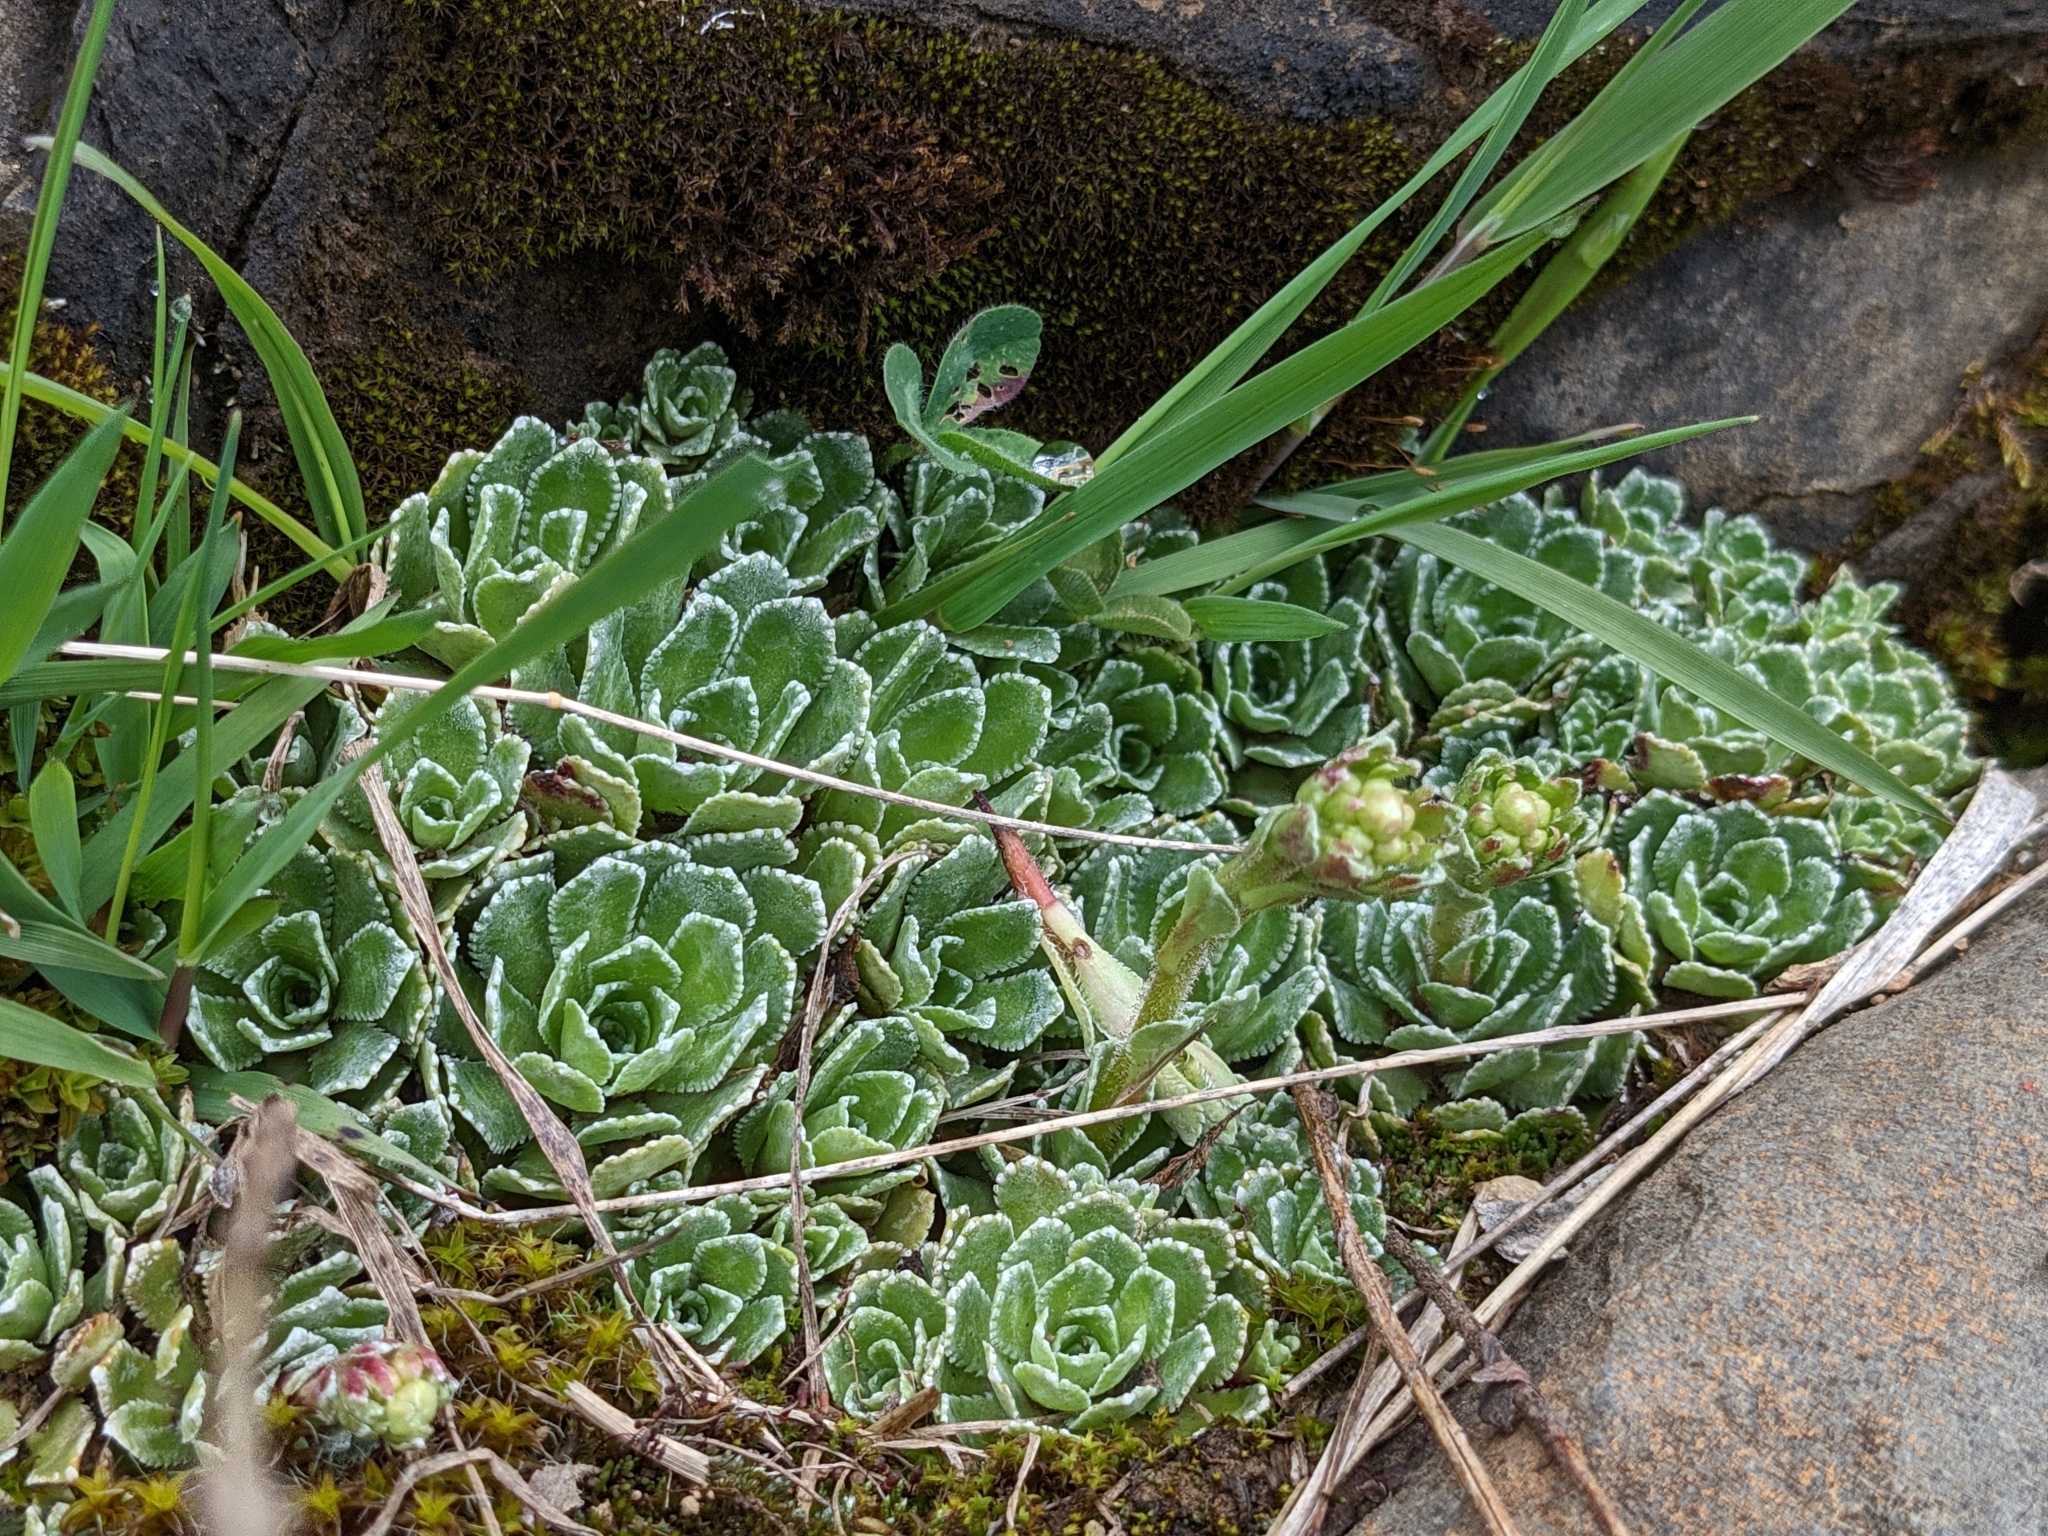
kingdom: Plantae
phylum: Tracheophyta
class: Magnoliopsida
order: Saxifragales
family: Saxifragaceae
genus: Saxifraga
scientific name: Saxifraga paniculata
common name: Livelong saxifrage
